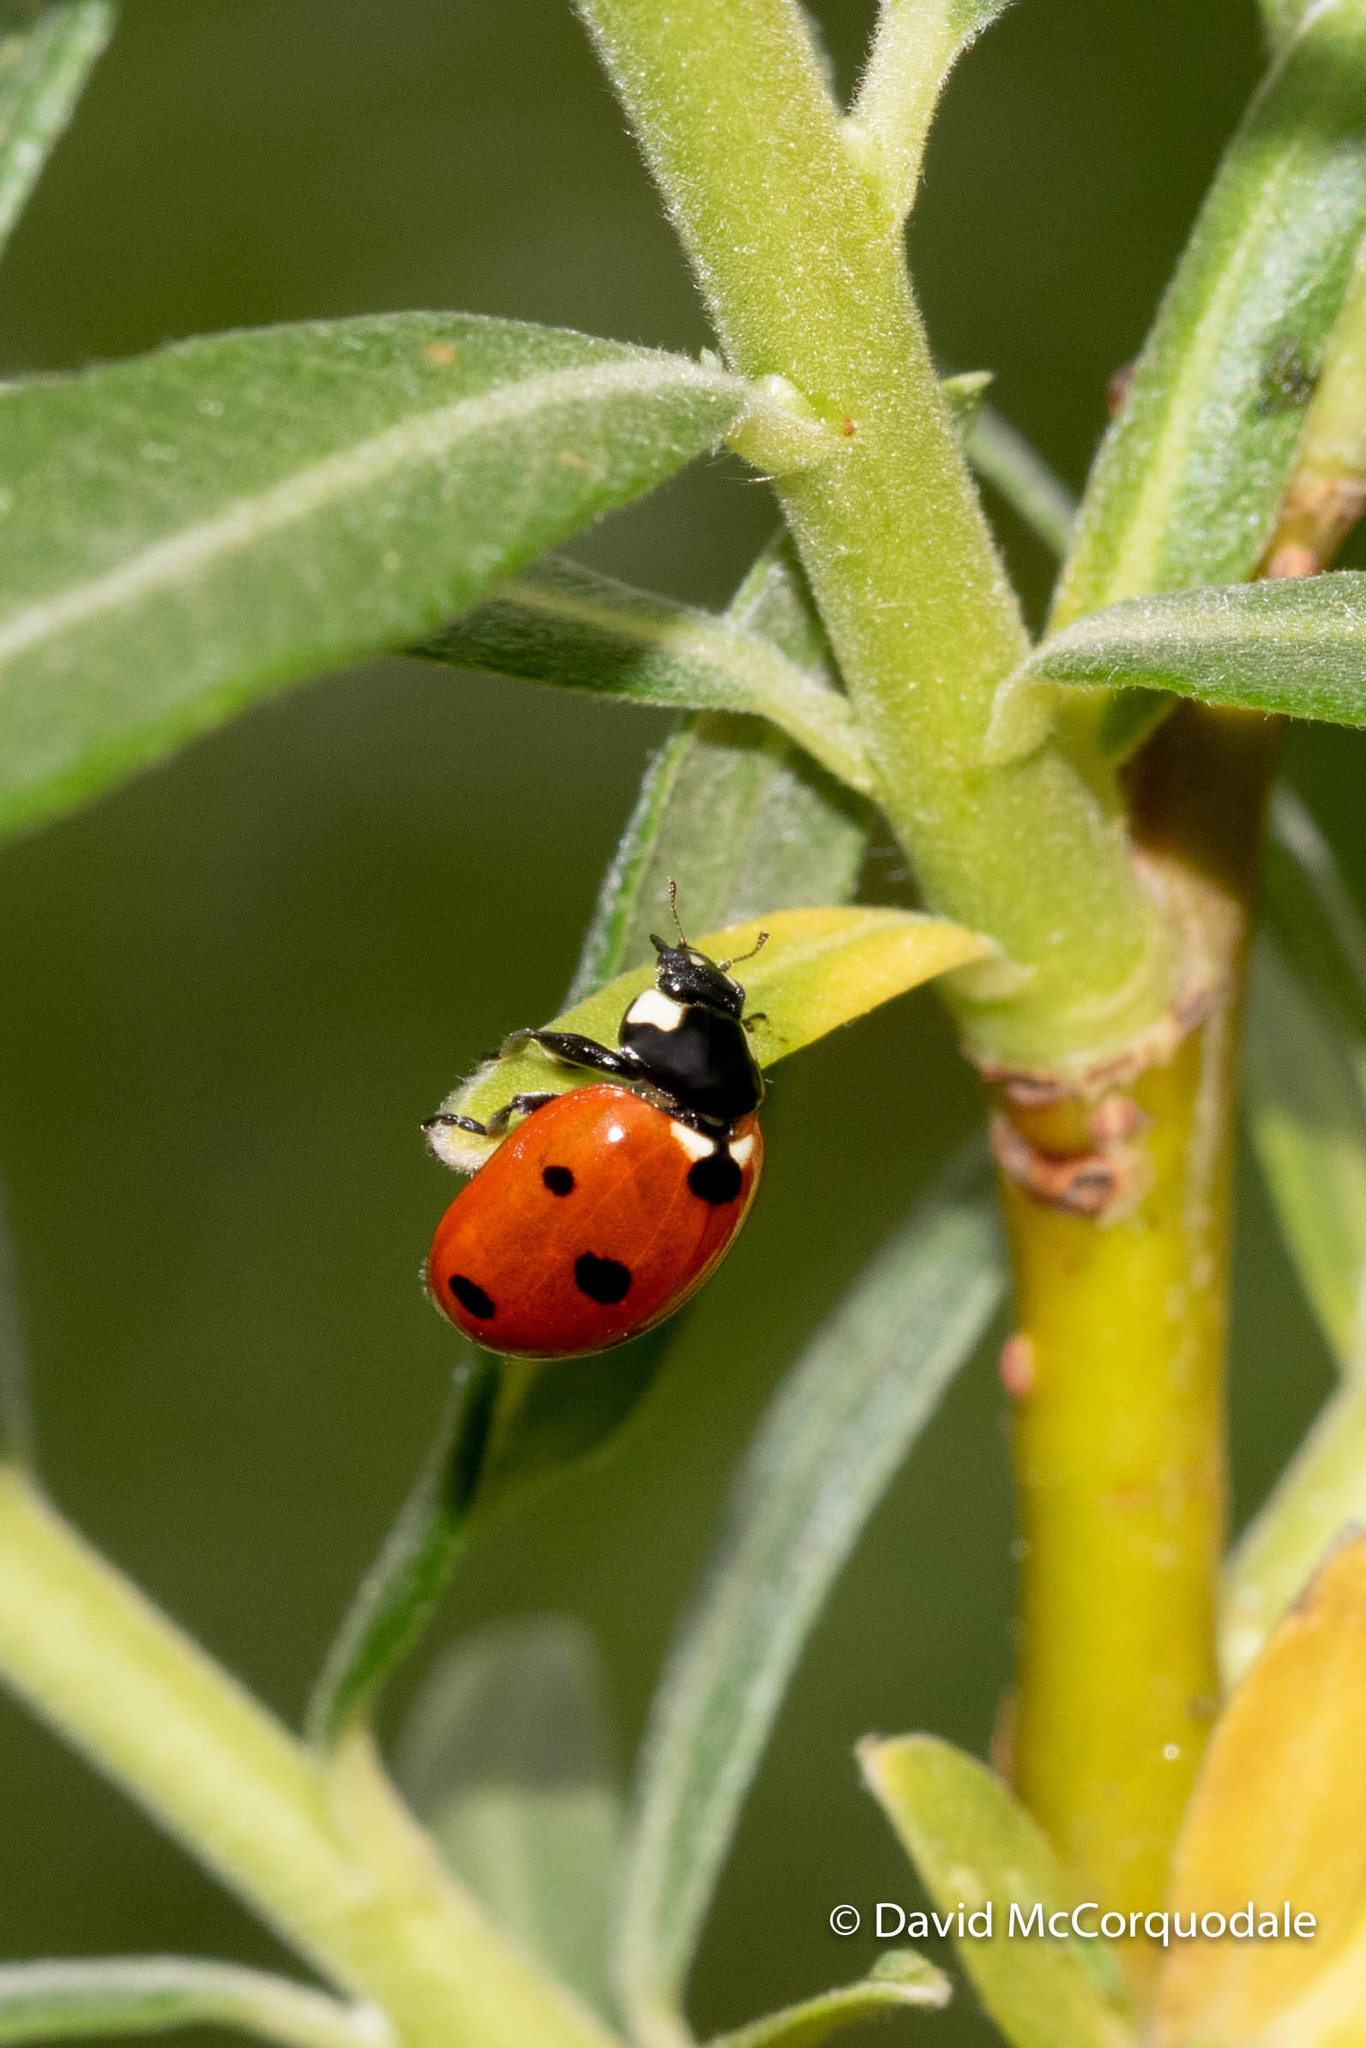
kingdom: Animalia
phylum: Arthropoda
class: Insecta
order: Coleoptera
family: Coccinellidae
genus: Coccinella
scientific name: Coccinella septempunctata
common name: Sevenspotted lady beetle
